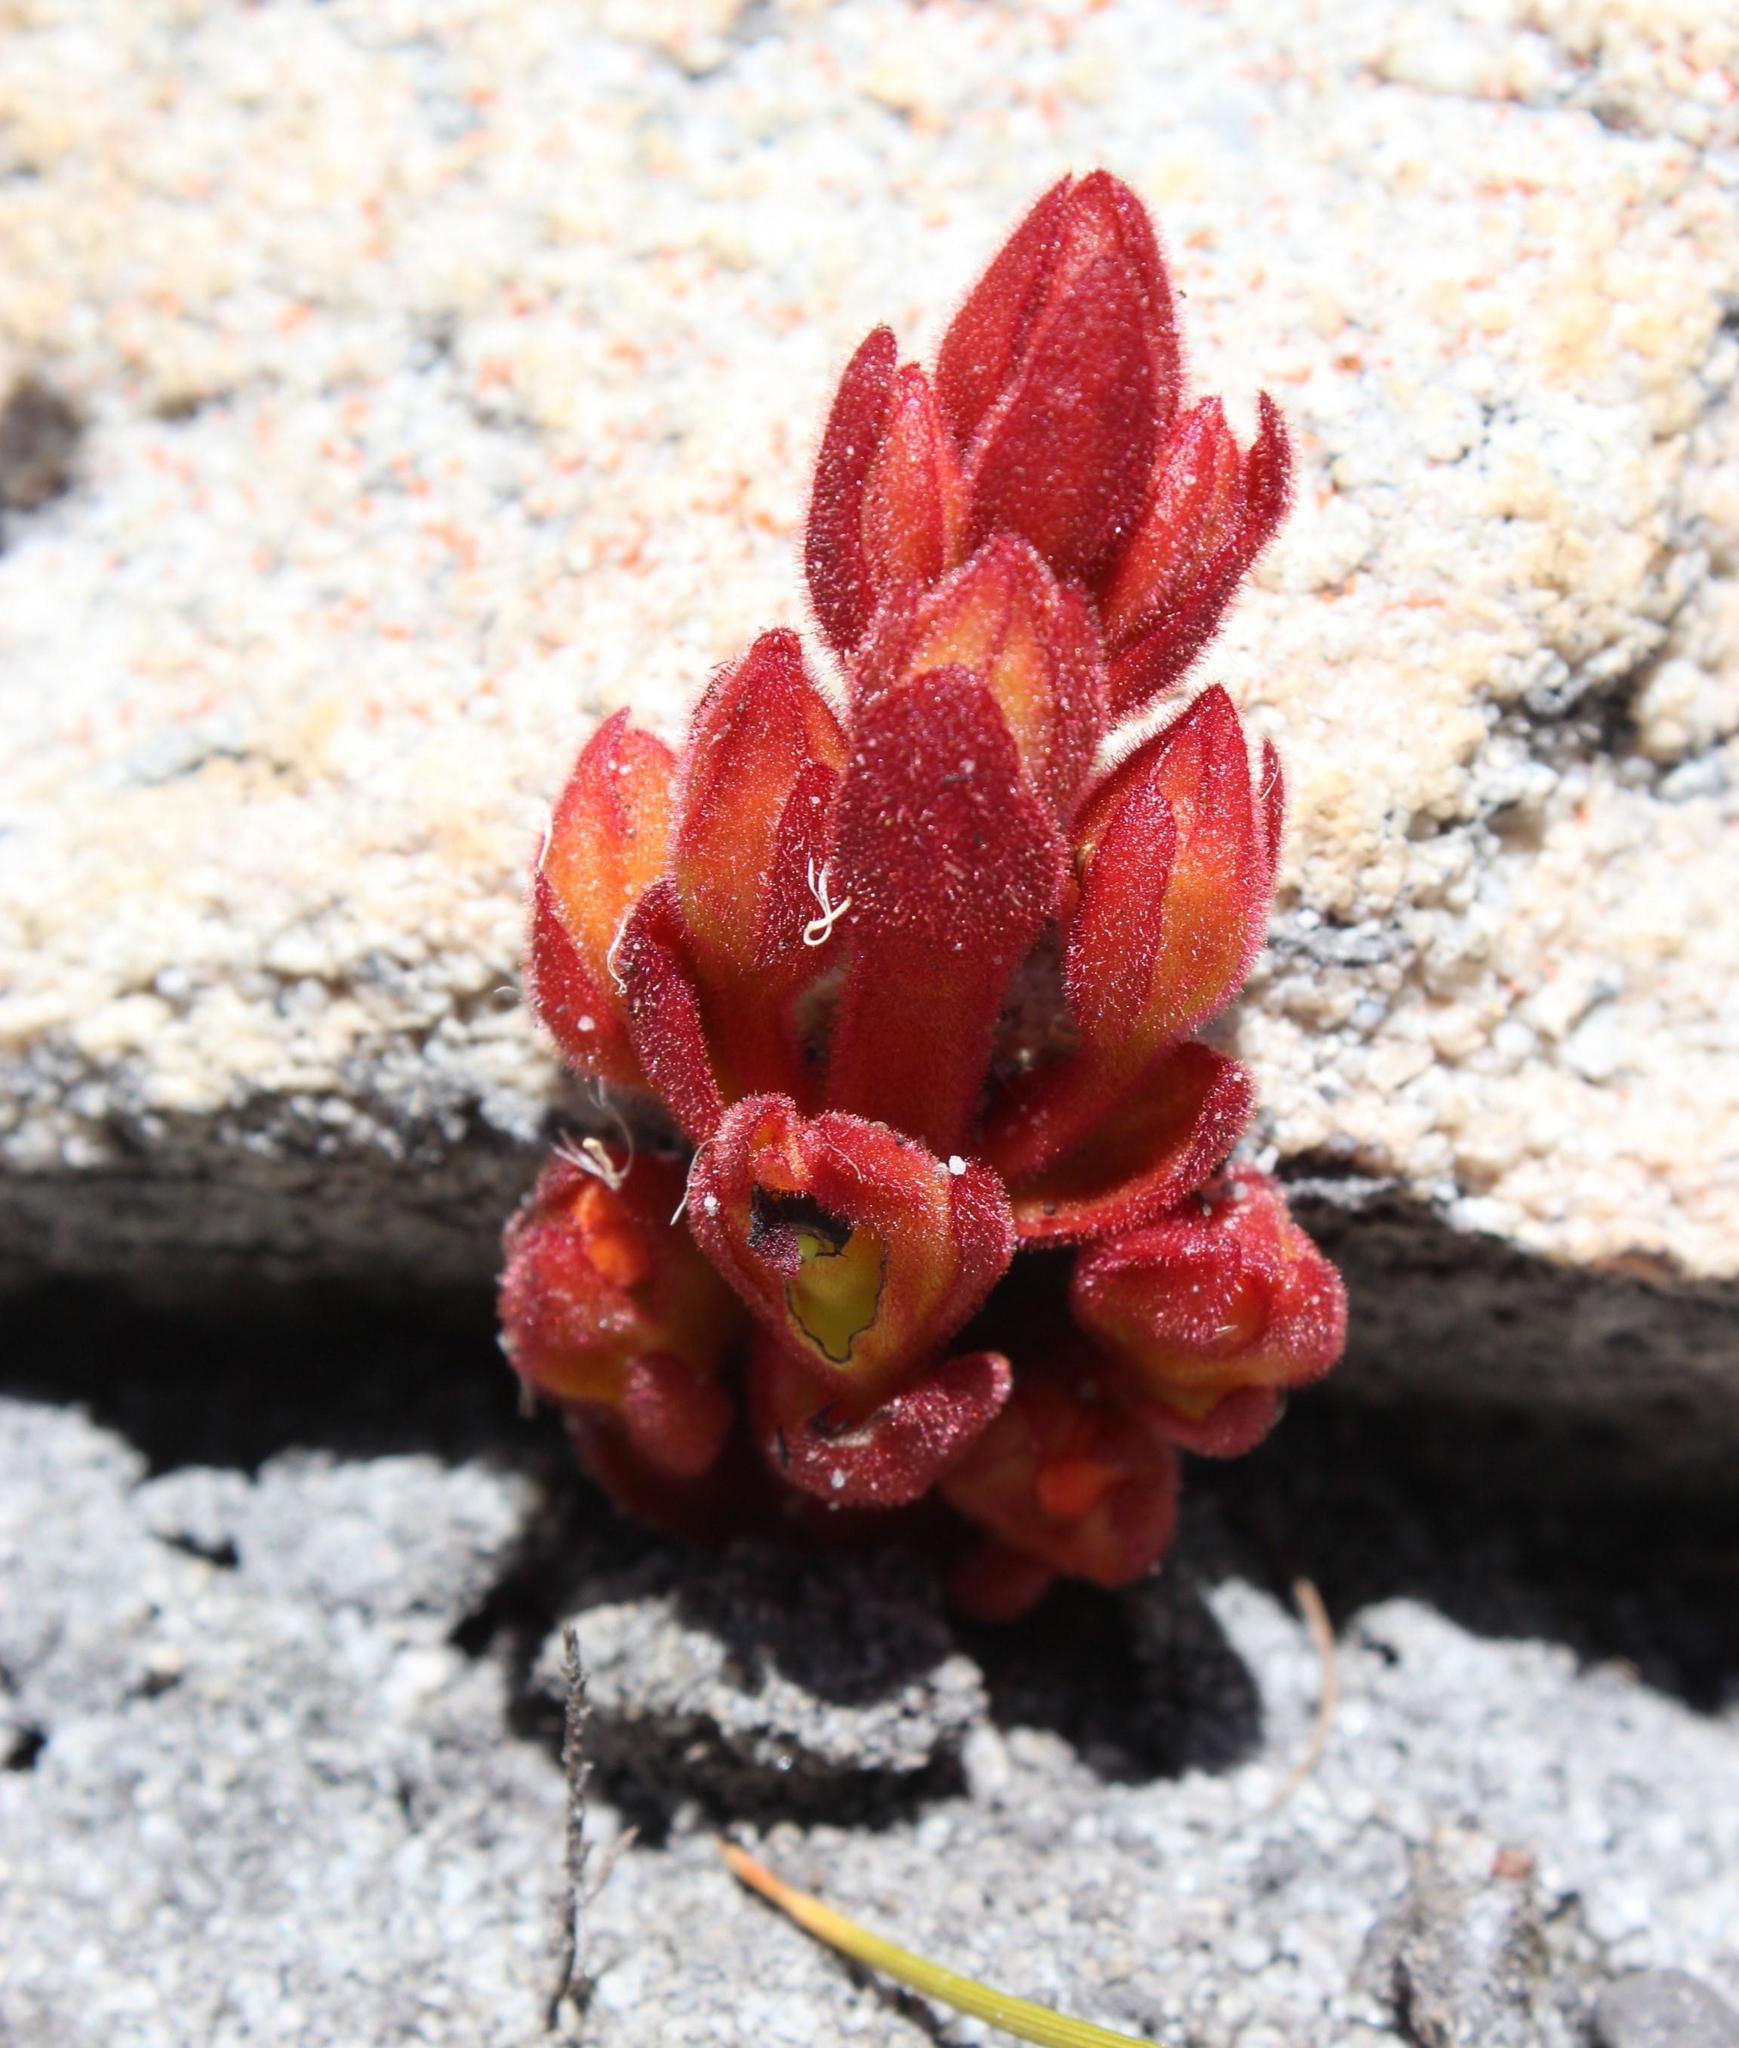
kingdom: Plantae
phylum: Tracheophyta
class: Magnoliopsida
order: Lamiales
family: Orobanchaceae
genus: Harveya
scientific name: Harveya bolusii
